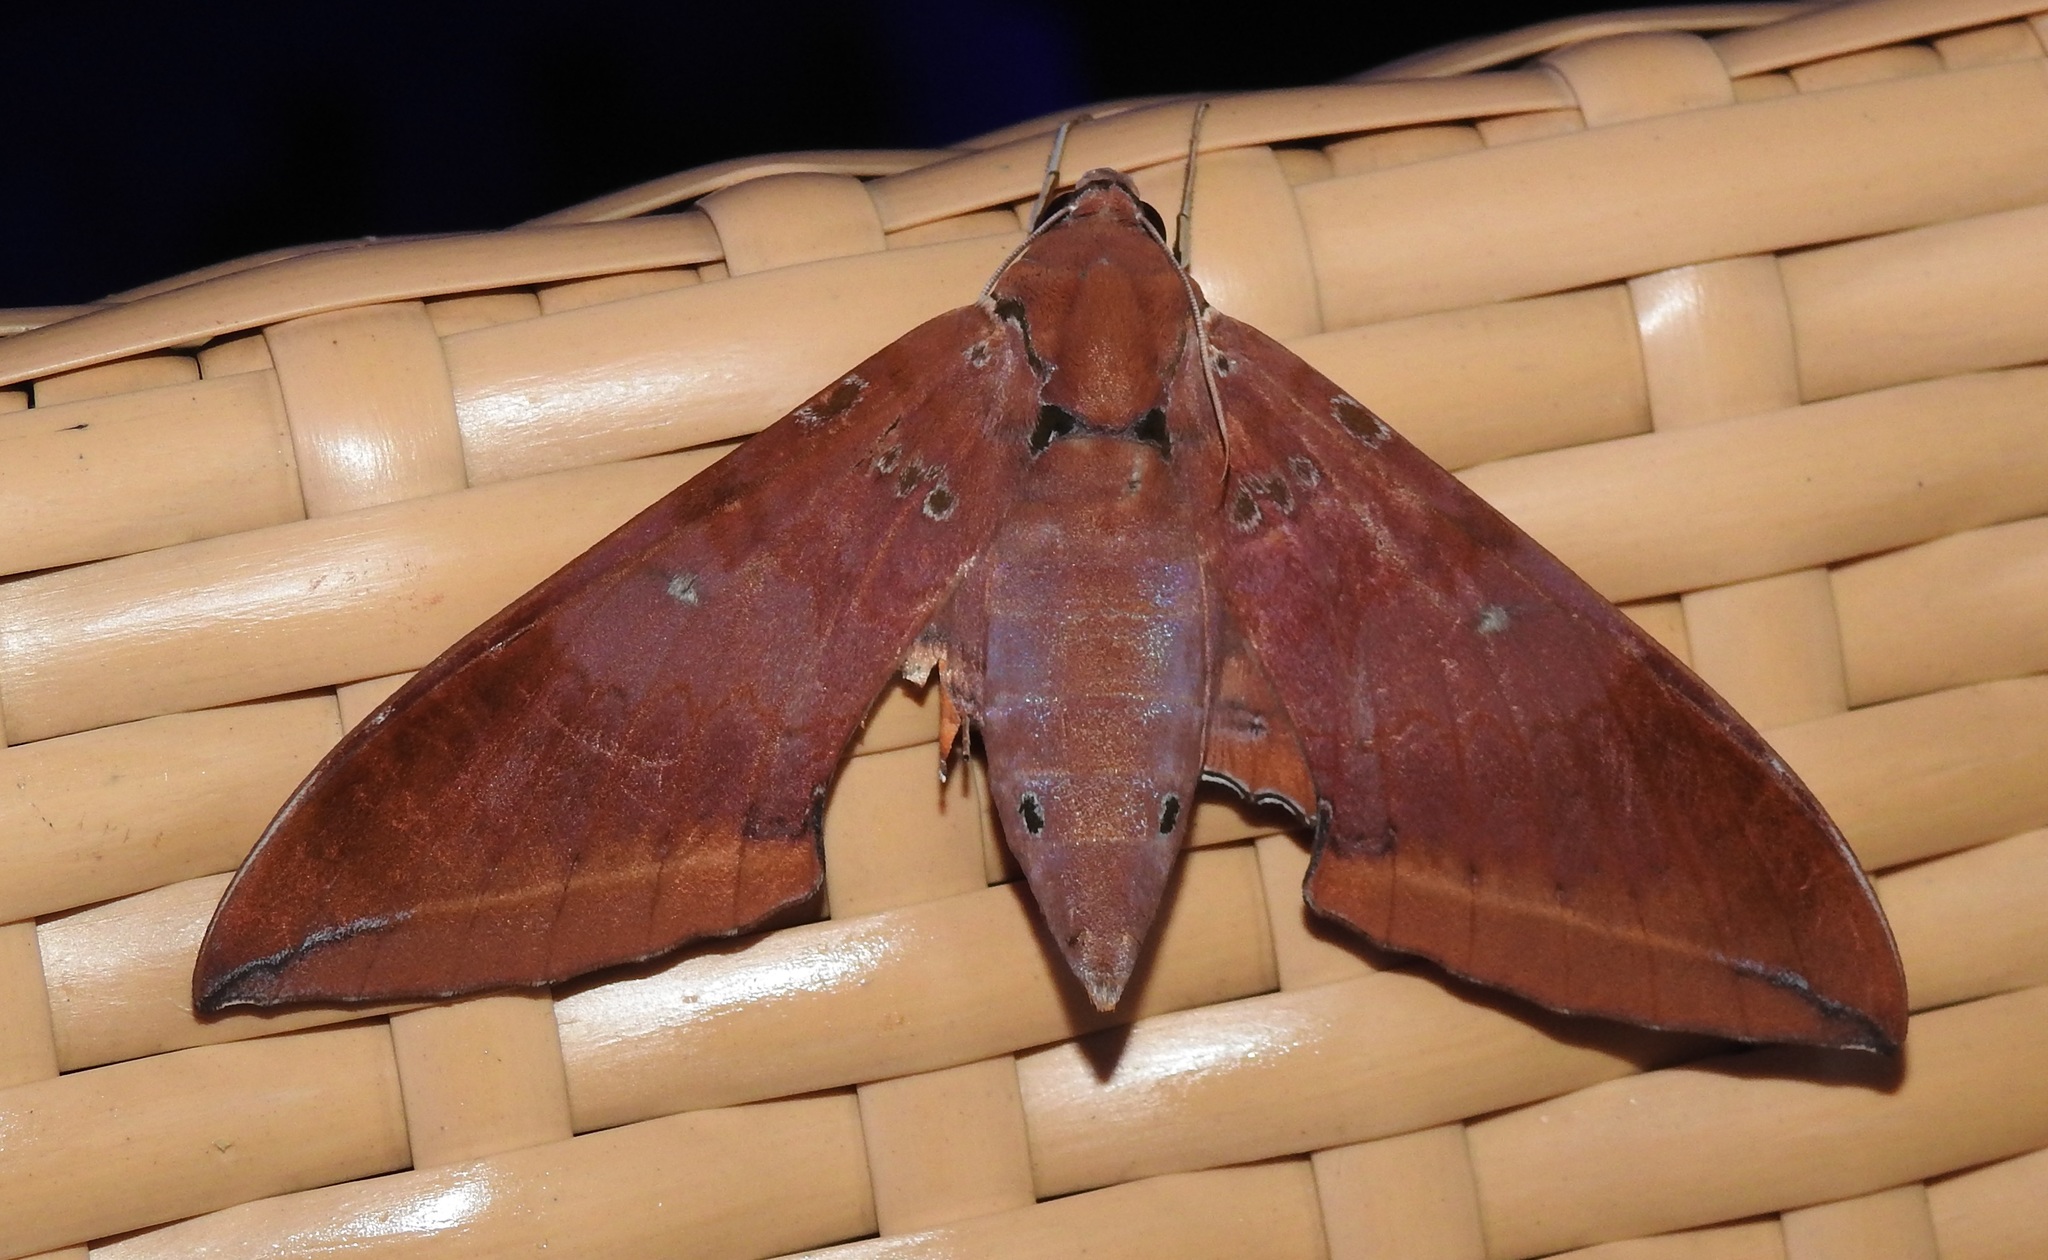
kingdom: Animalia
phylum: Arthropoda
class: Insecta
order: Lepidoptera
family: Sphingidae
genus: Ambulyx
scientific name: Ambulyx moorei
